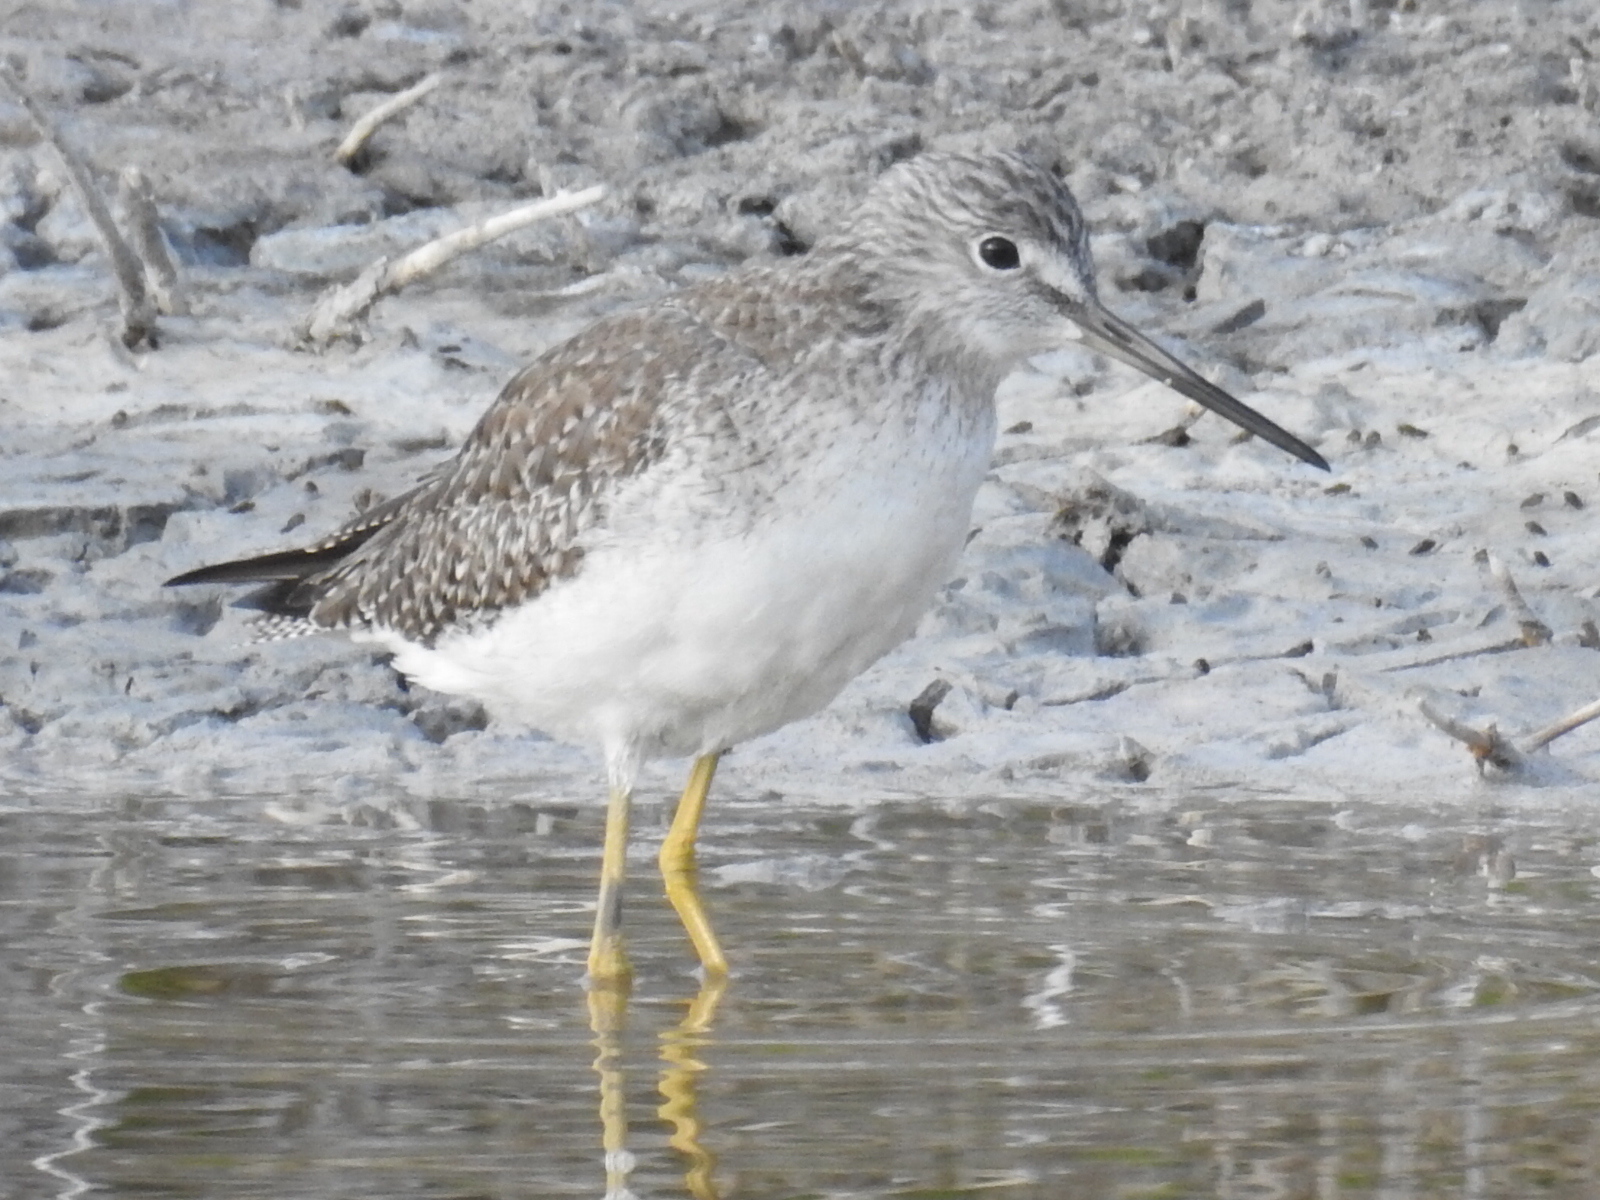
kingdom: Animalia
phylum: Chordata
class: Aves
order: Charadriiformes
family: Scolopacidae
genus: Tringa
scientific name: Tringa melanoleuca
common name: Greater yellowlegs
